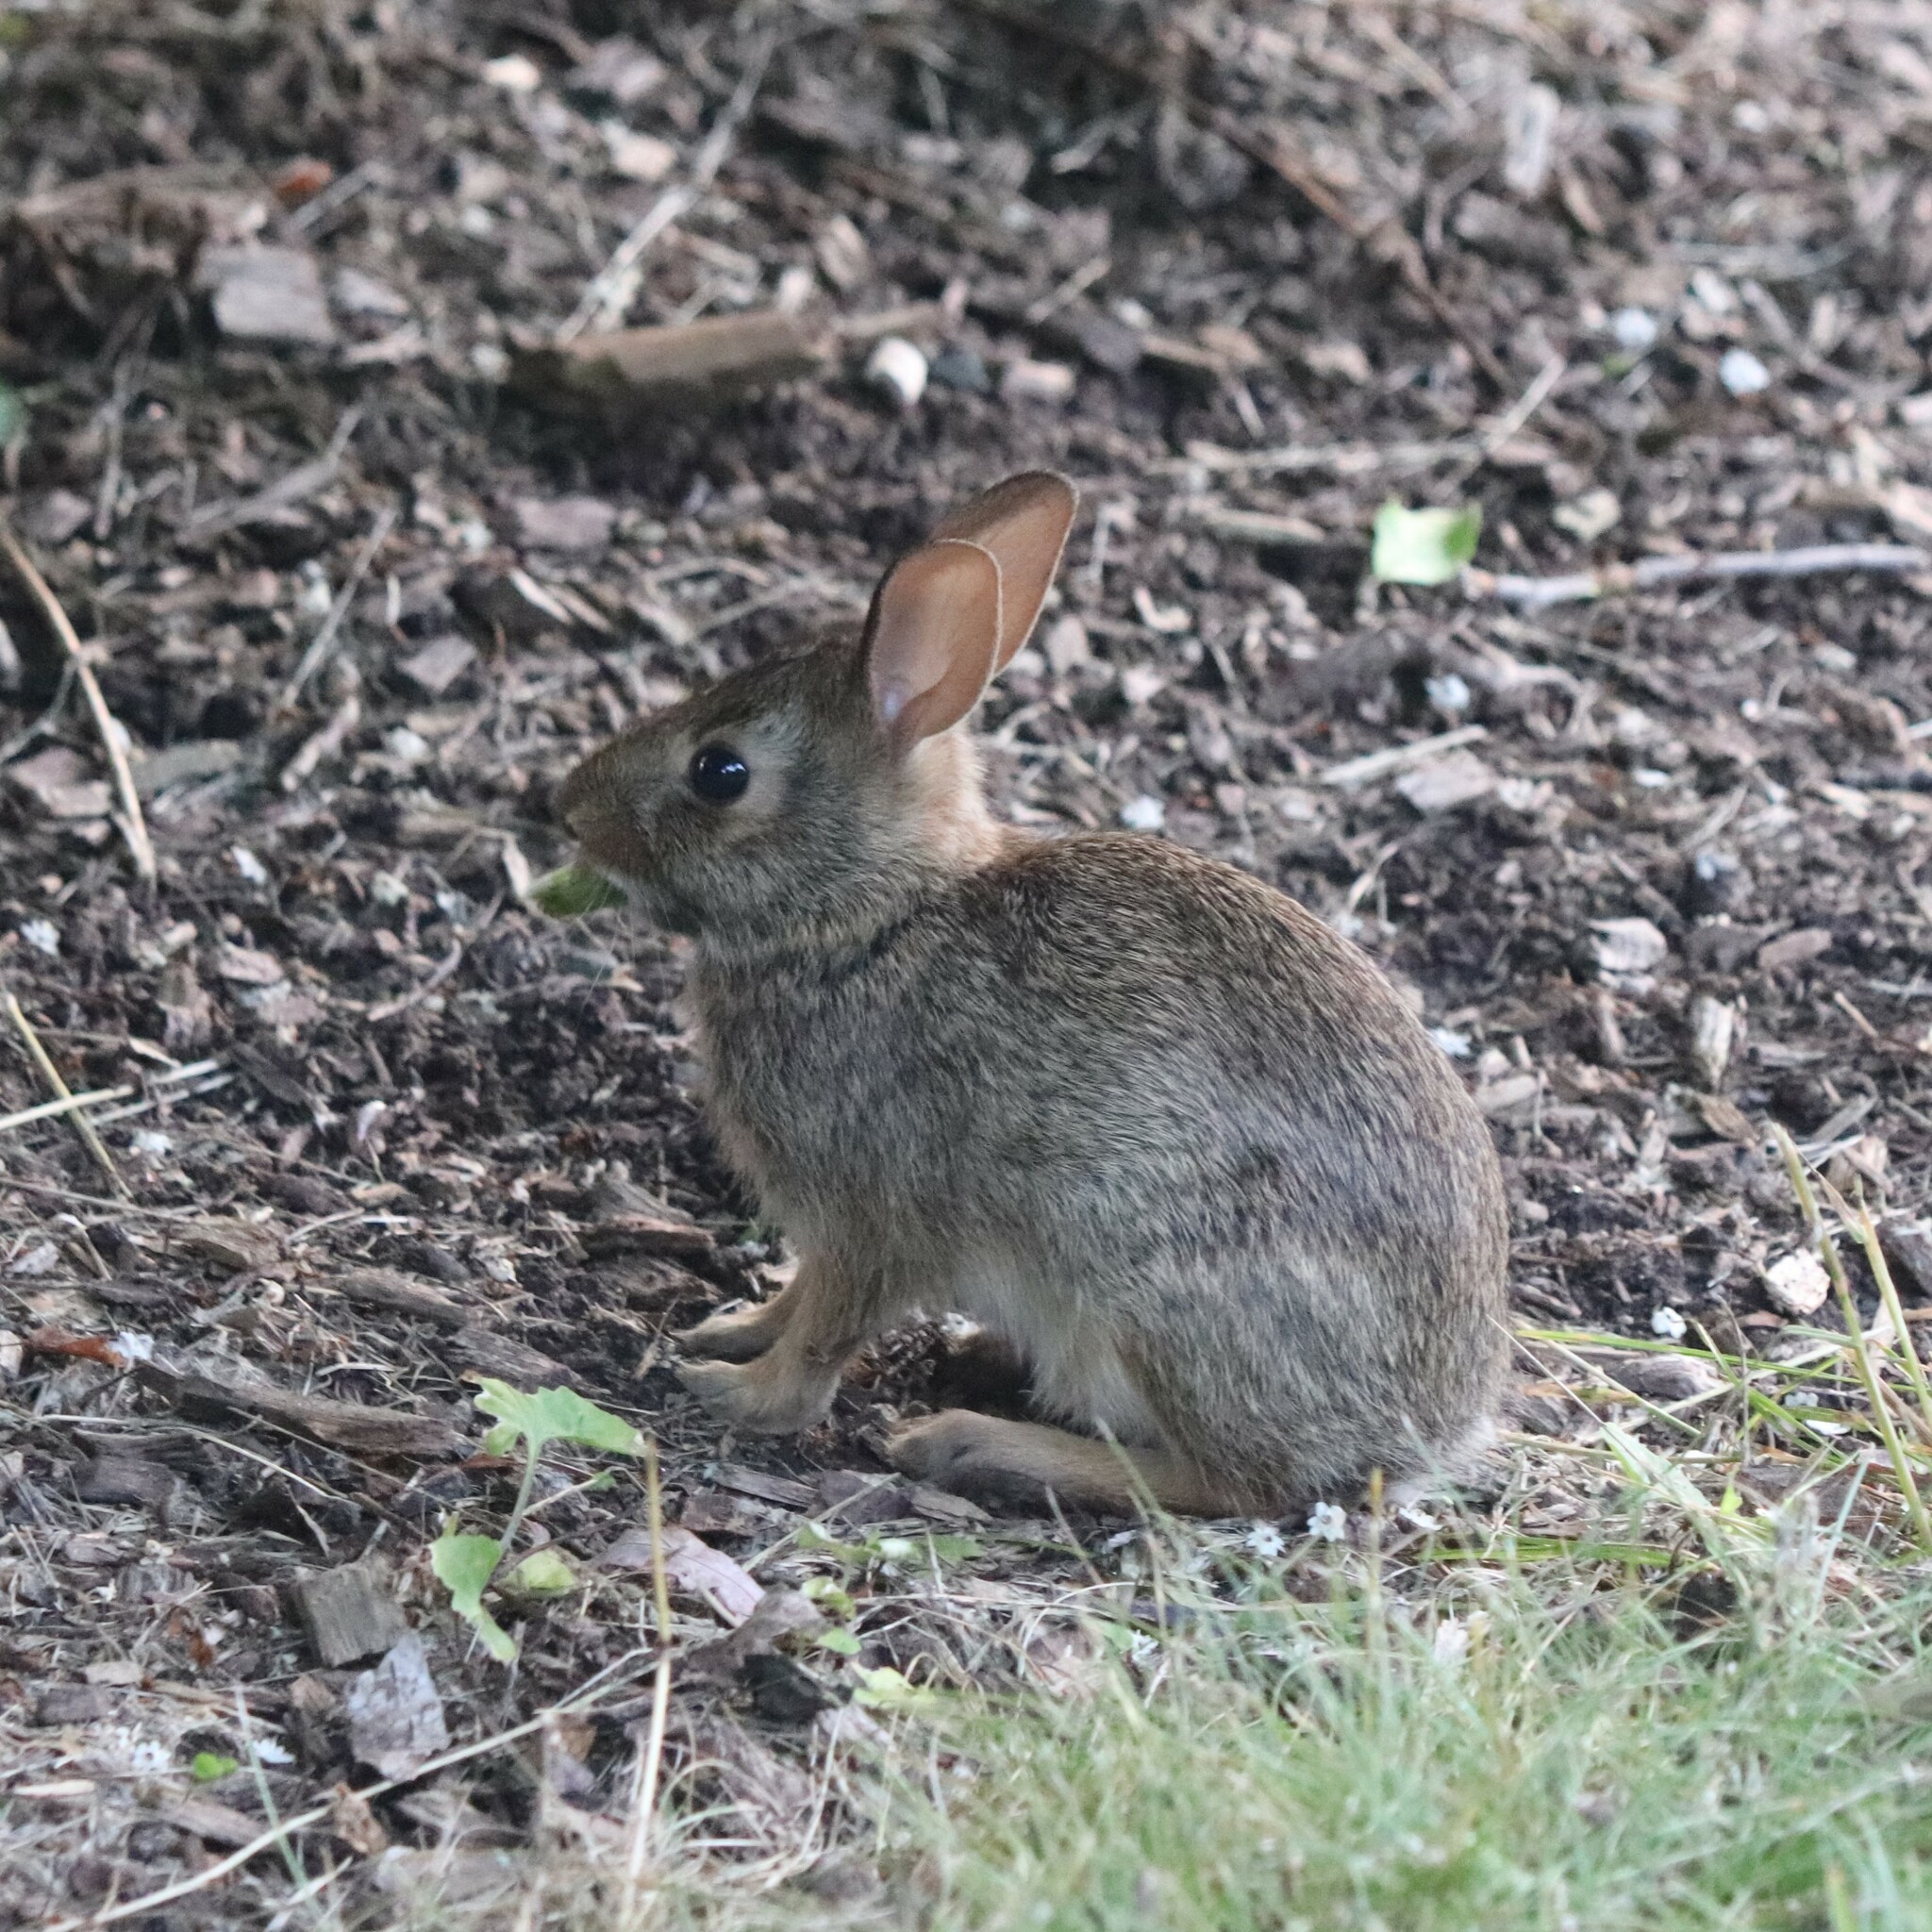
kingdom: Animalia
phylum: Chordata
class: Mammalia
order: Lagomorpha
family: Leporidae
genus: Sylvilagus
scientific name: Sylvilagus floridanus
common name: Eastern cottontail
